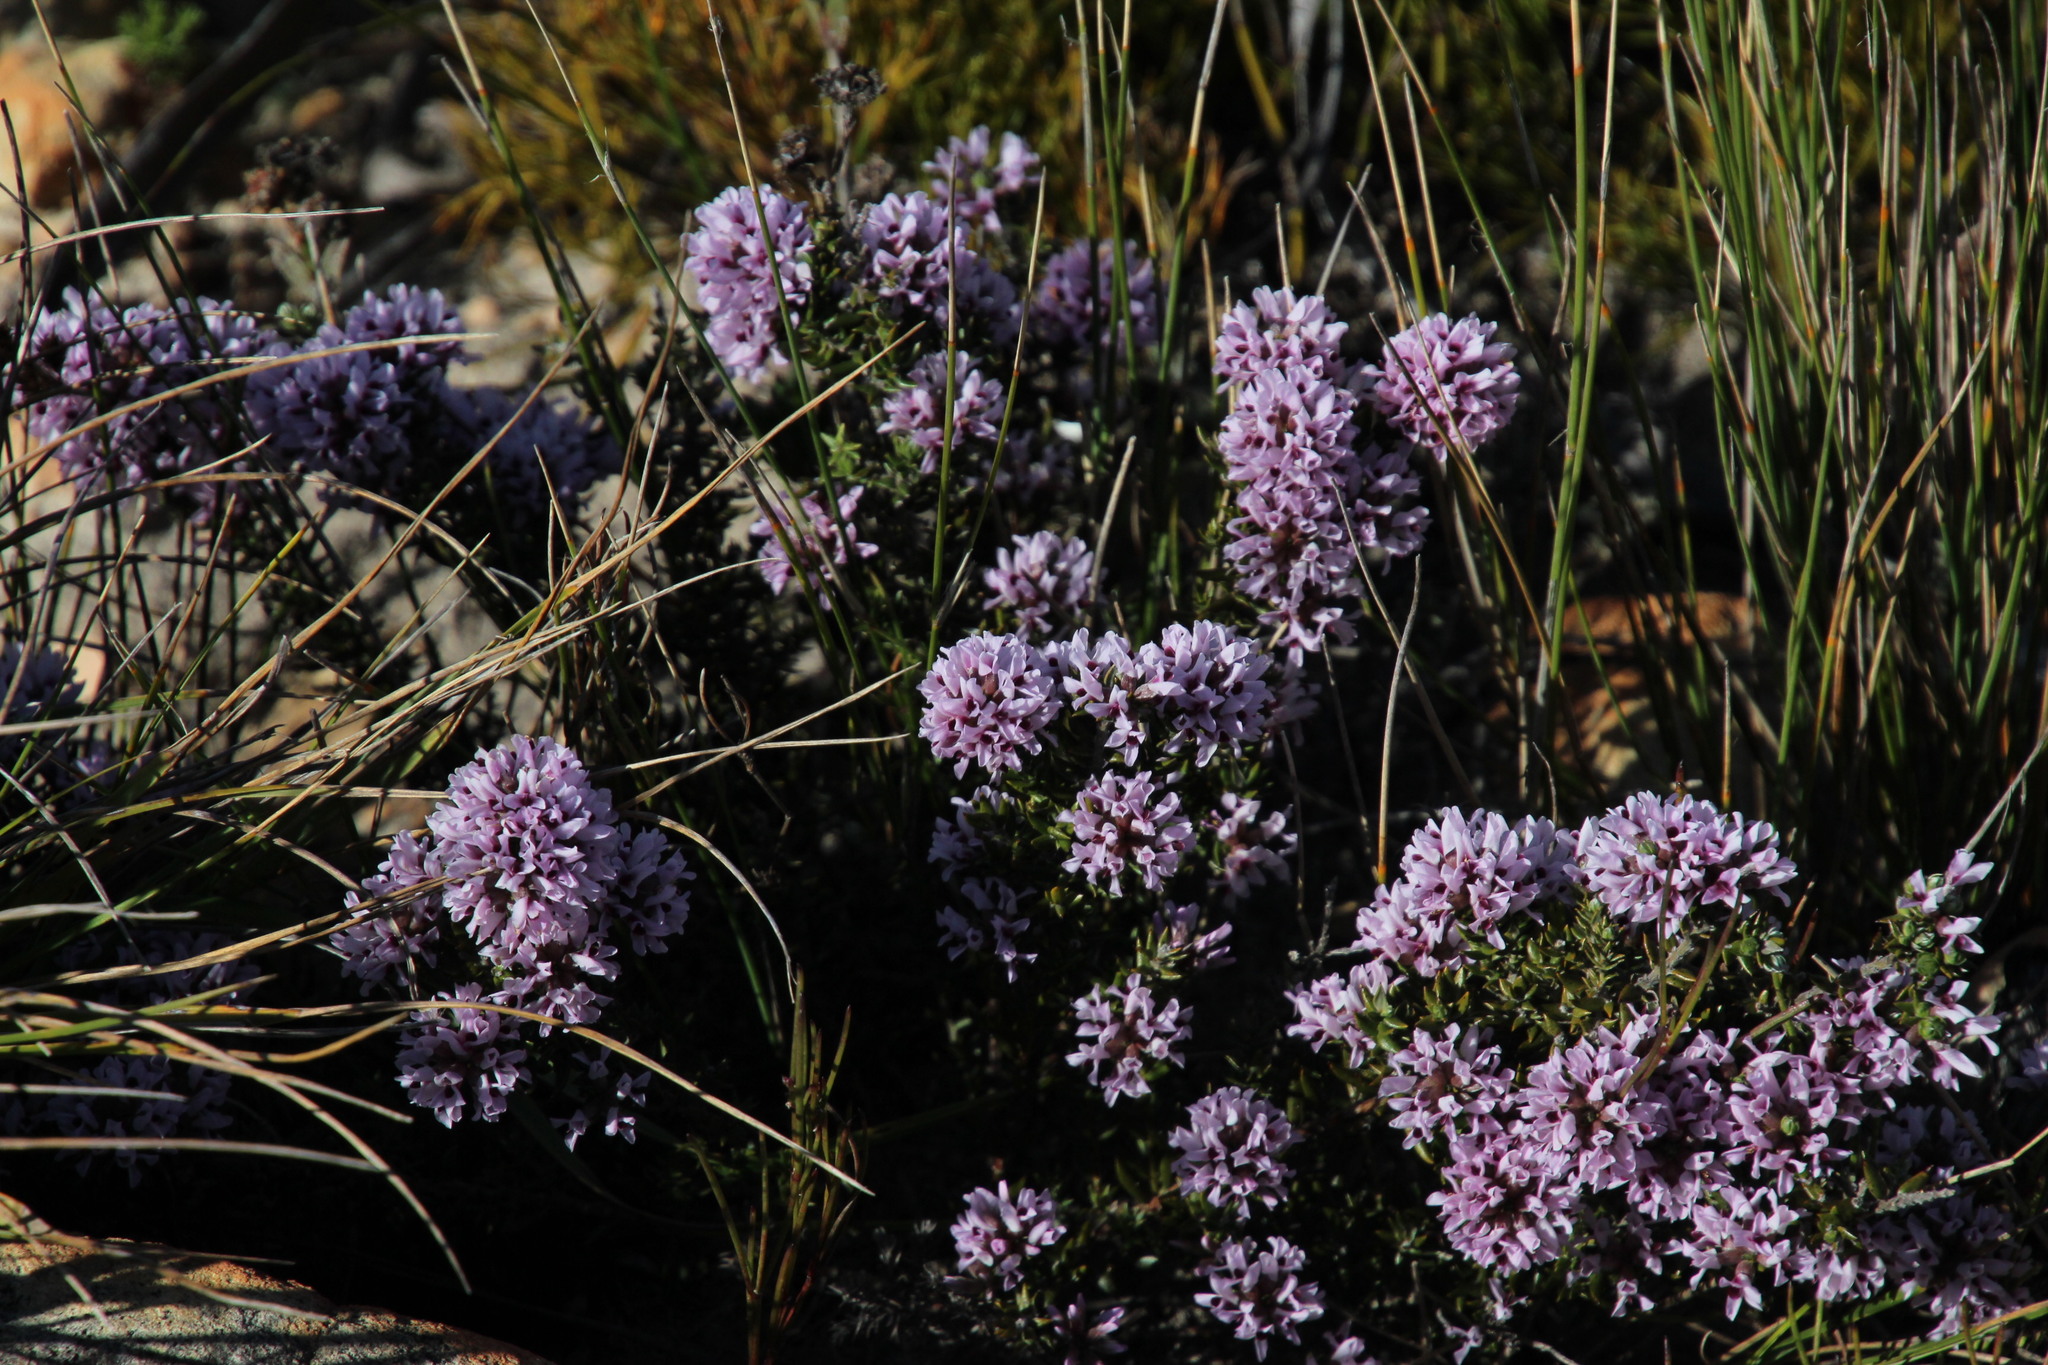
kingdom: Plantae
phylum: Tracheophyta
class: Magnoliopsida
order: Fabales
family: Fabaceae
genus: Amphithalea
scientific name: Amphithalea ericifolia
